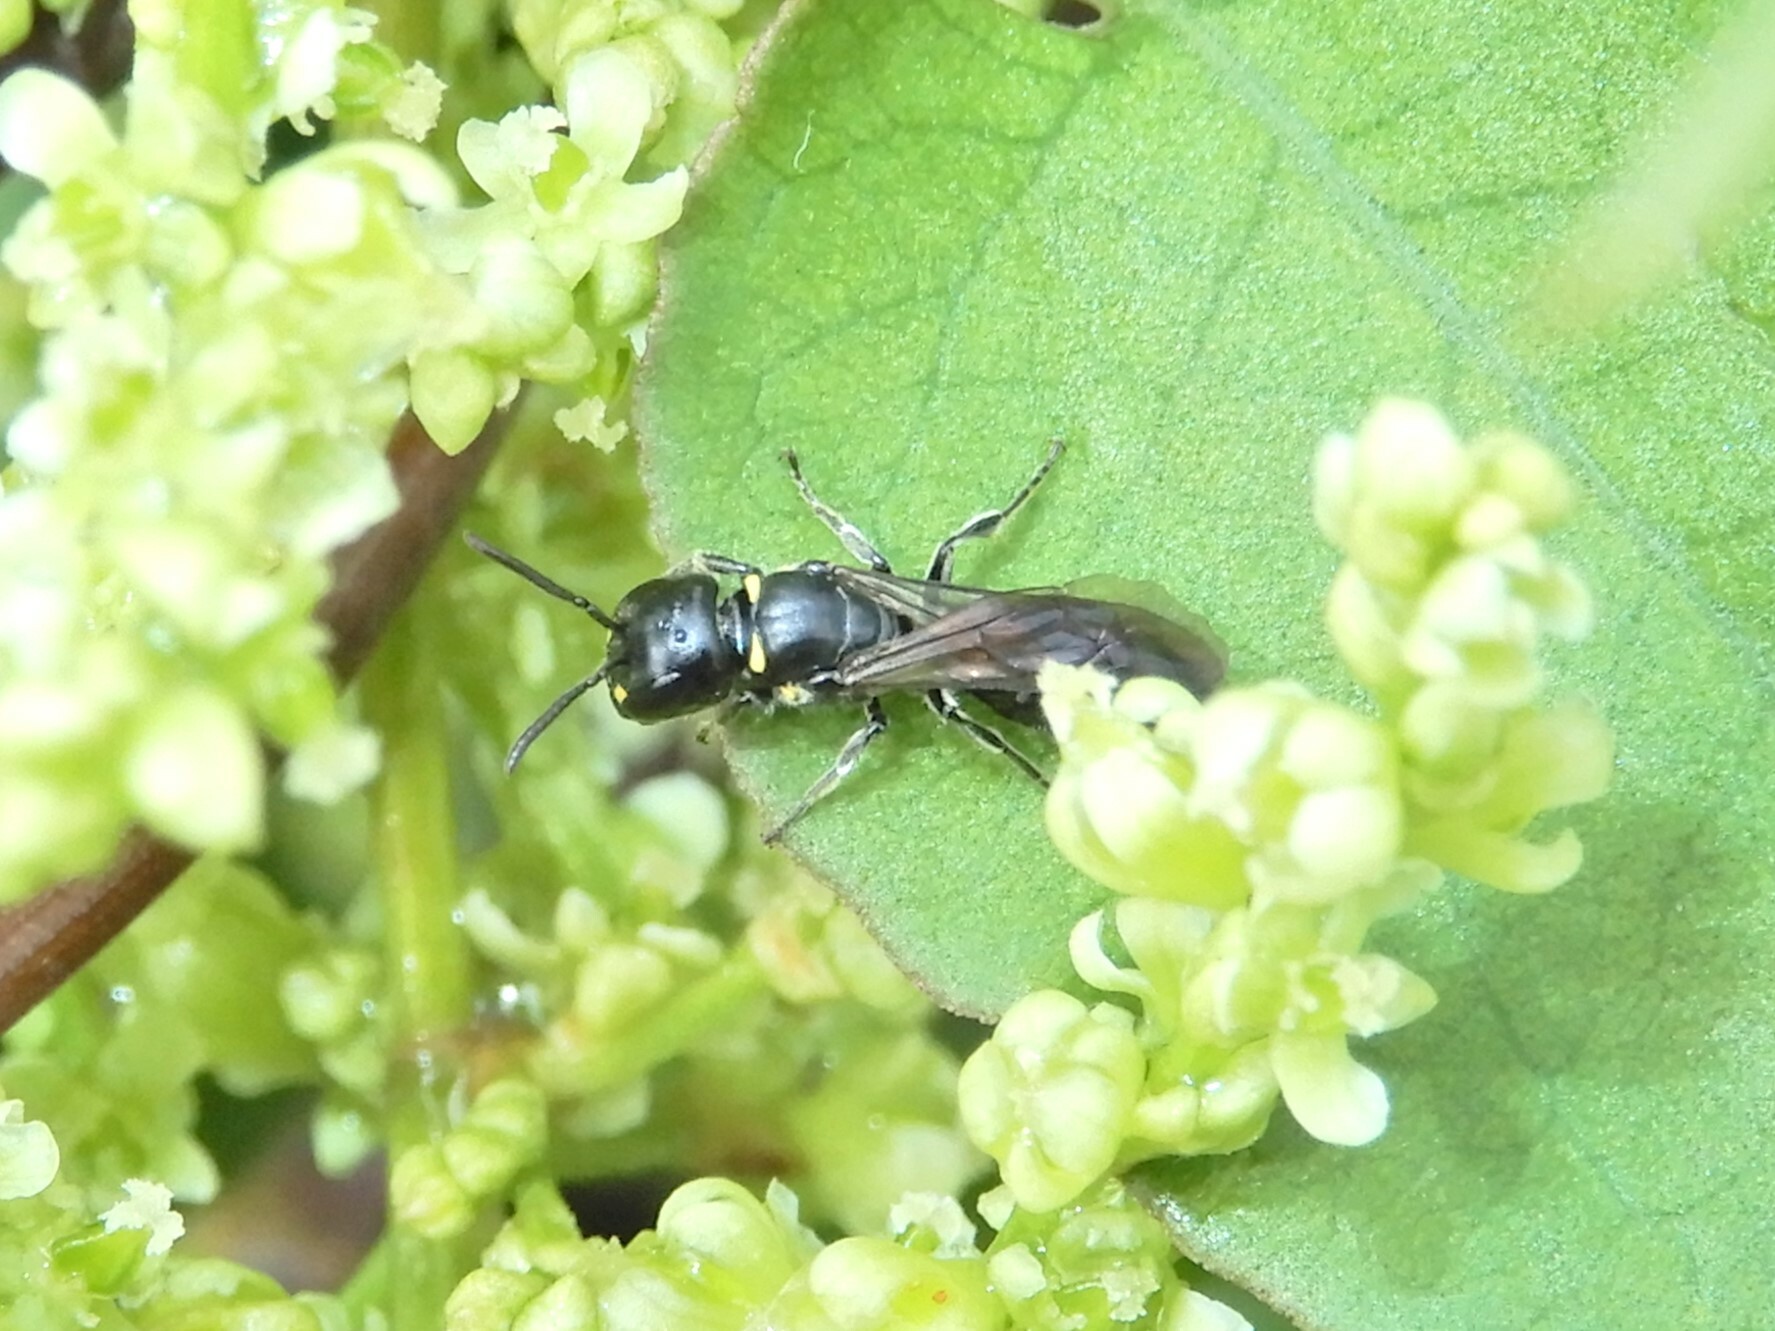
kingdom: Animalia
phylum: Arthropoda
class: Insecta
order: Hymenoptera
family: Colletidae
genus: Hylaeus
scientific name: Hylaeus relegatus
